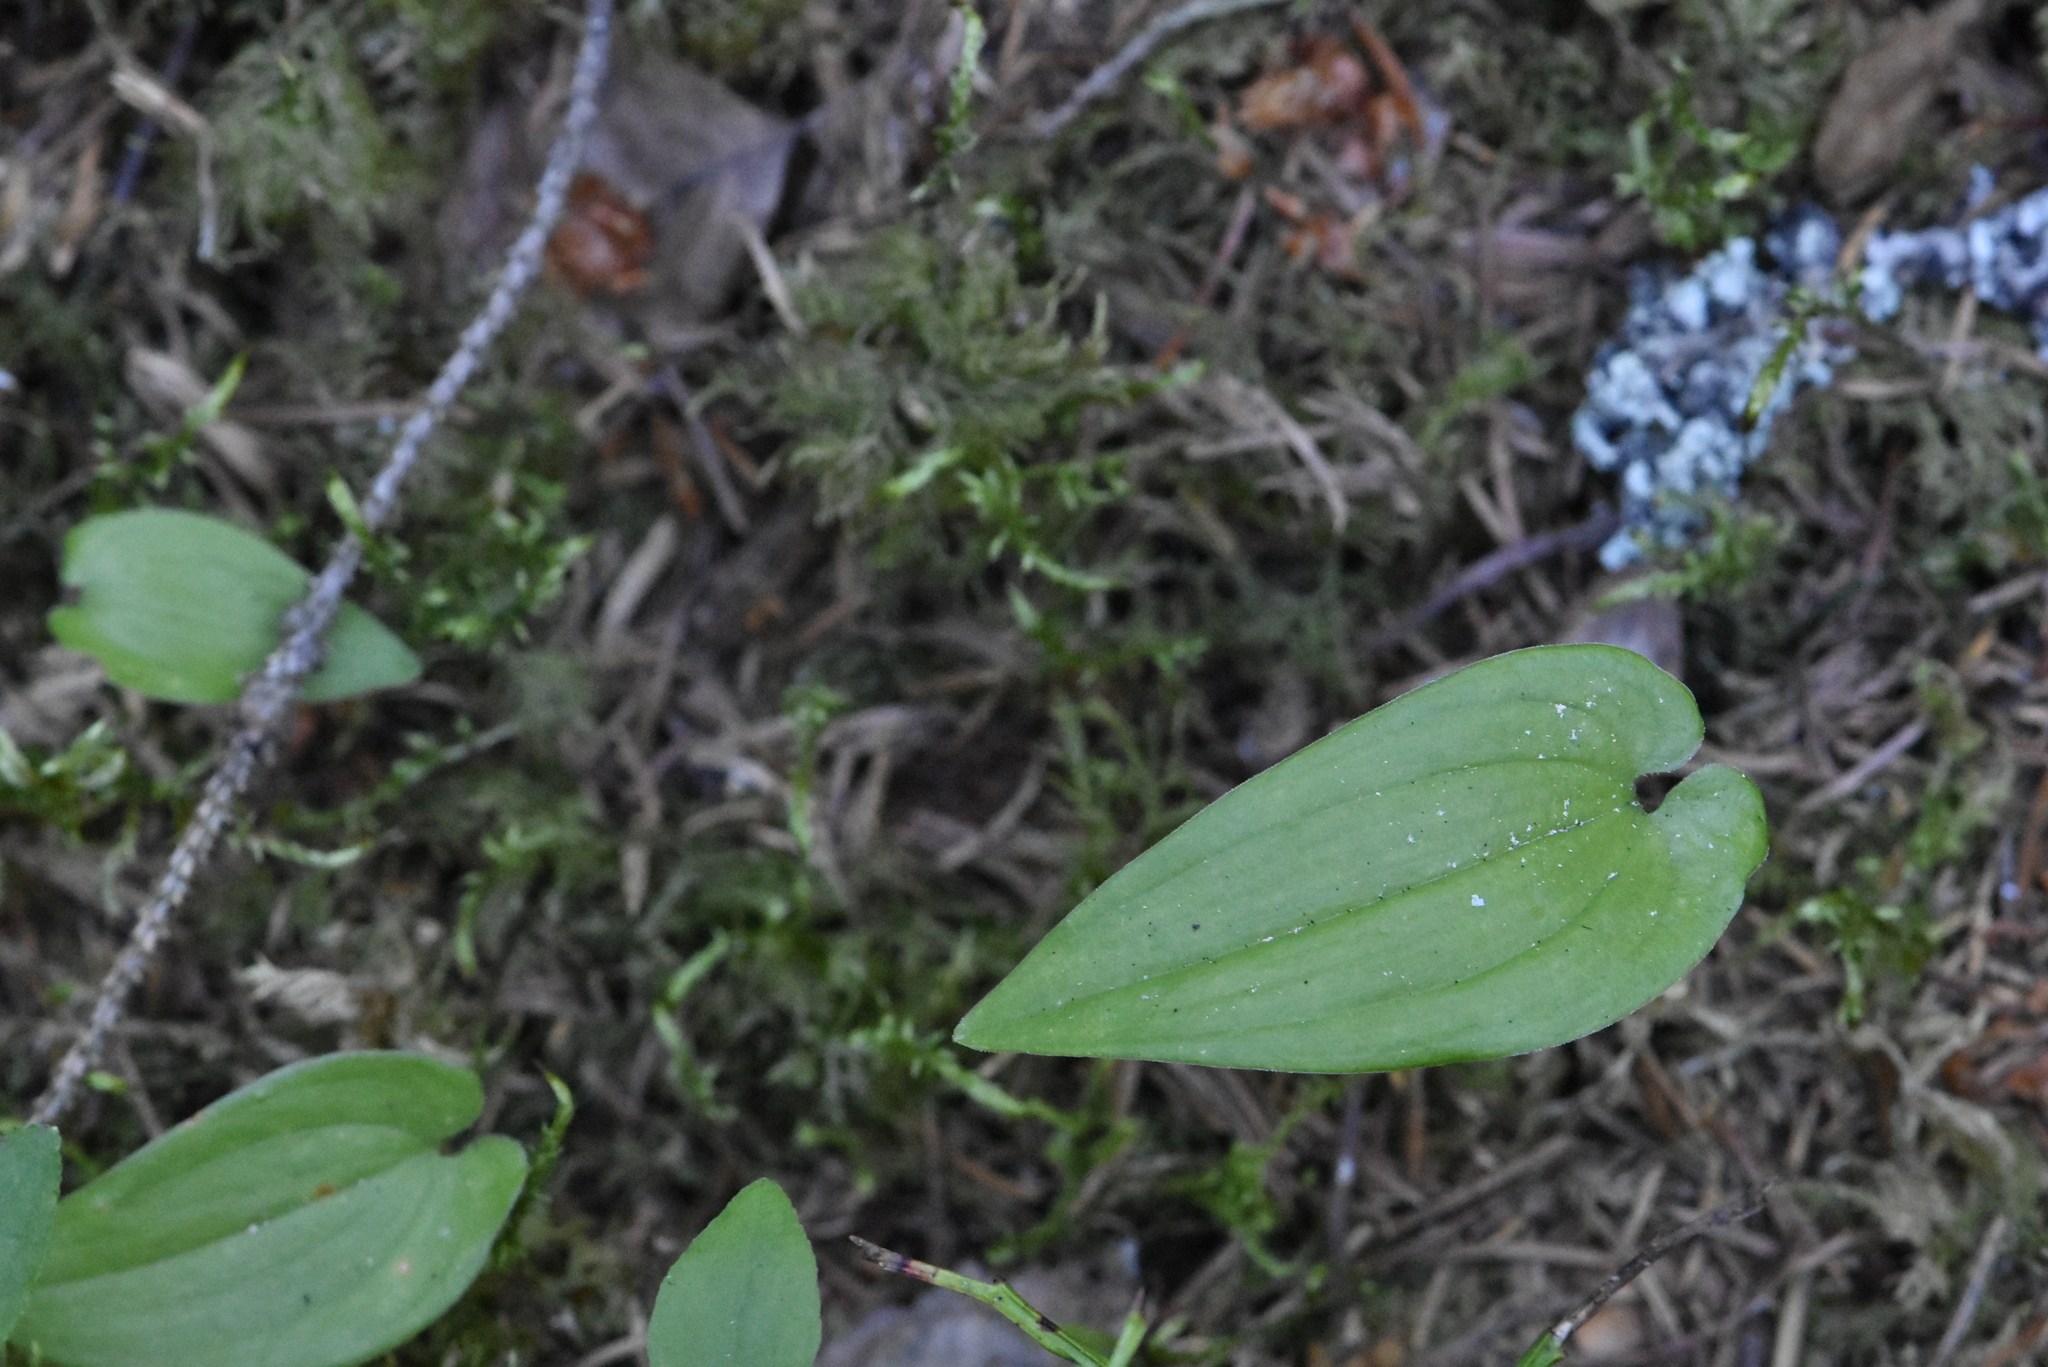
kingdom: Plantae
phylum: Tracheophyta
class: Liliopsida
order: Asparagales
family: Asparagaceae
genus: Maianthemum
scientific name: Maianthemum bifolium
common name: May lily
